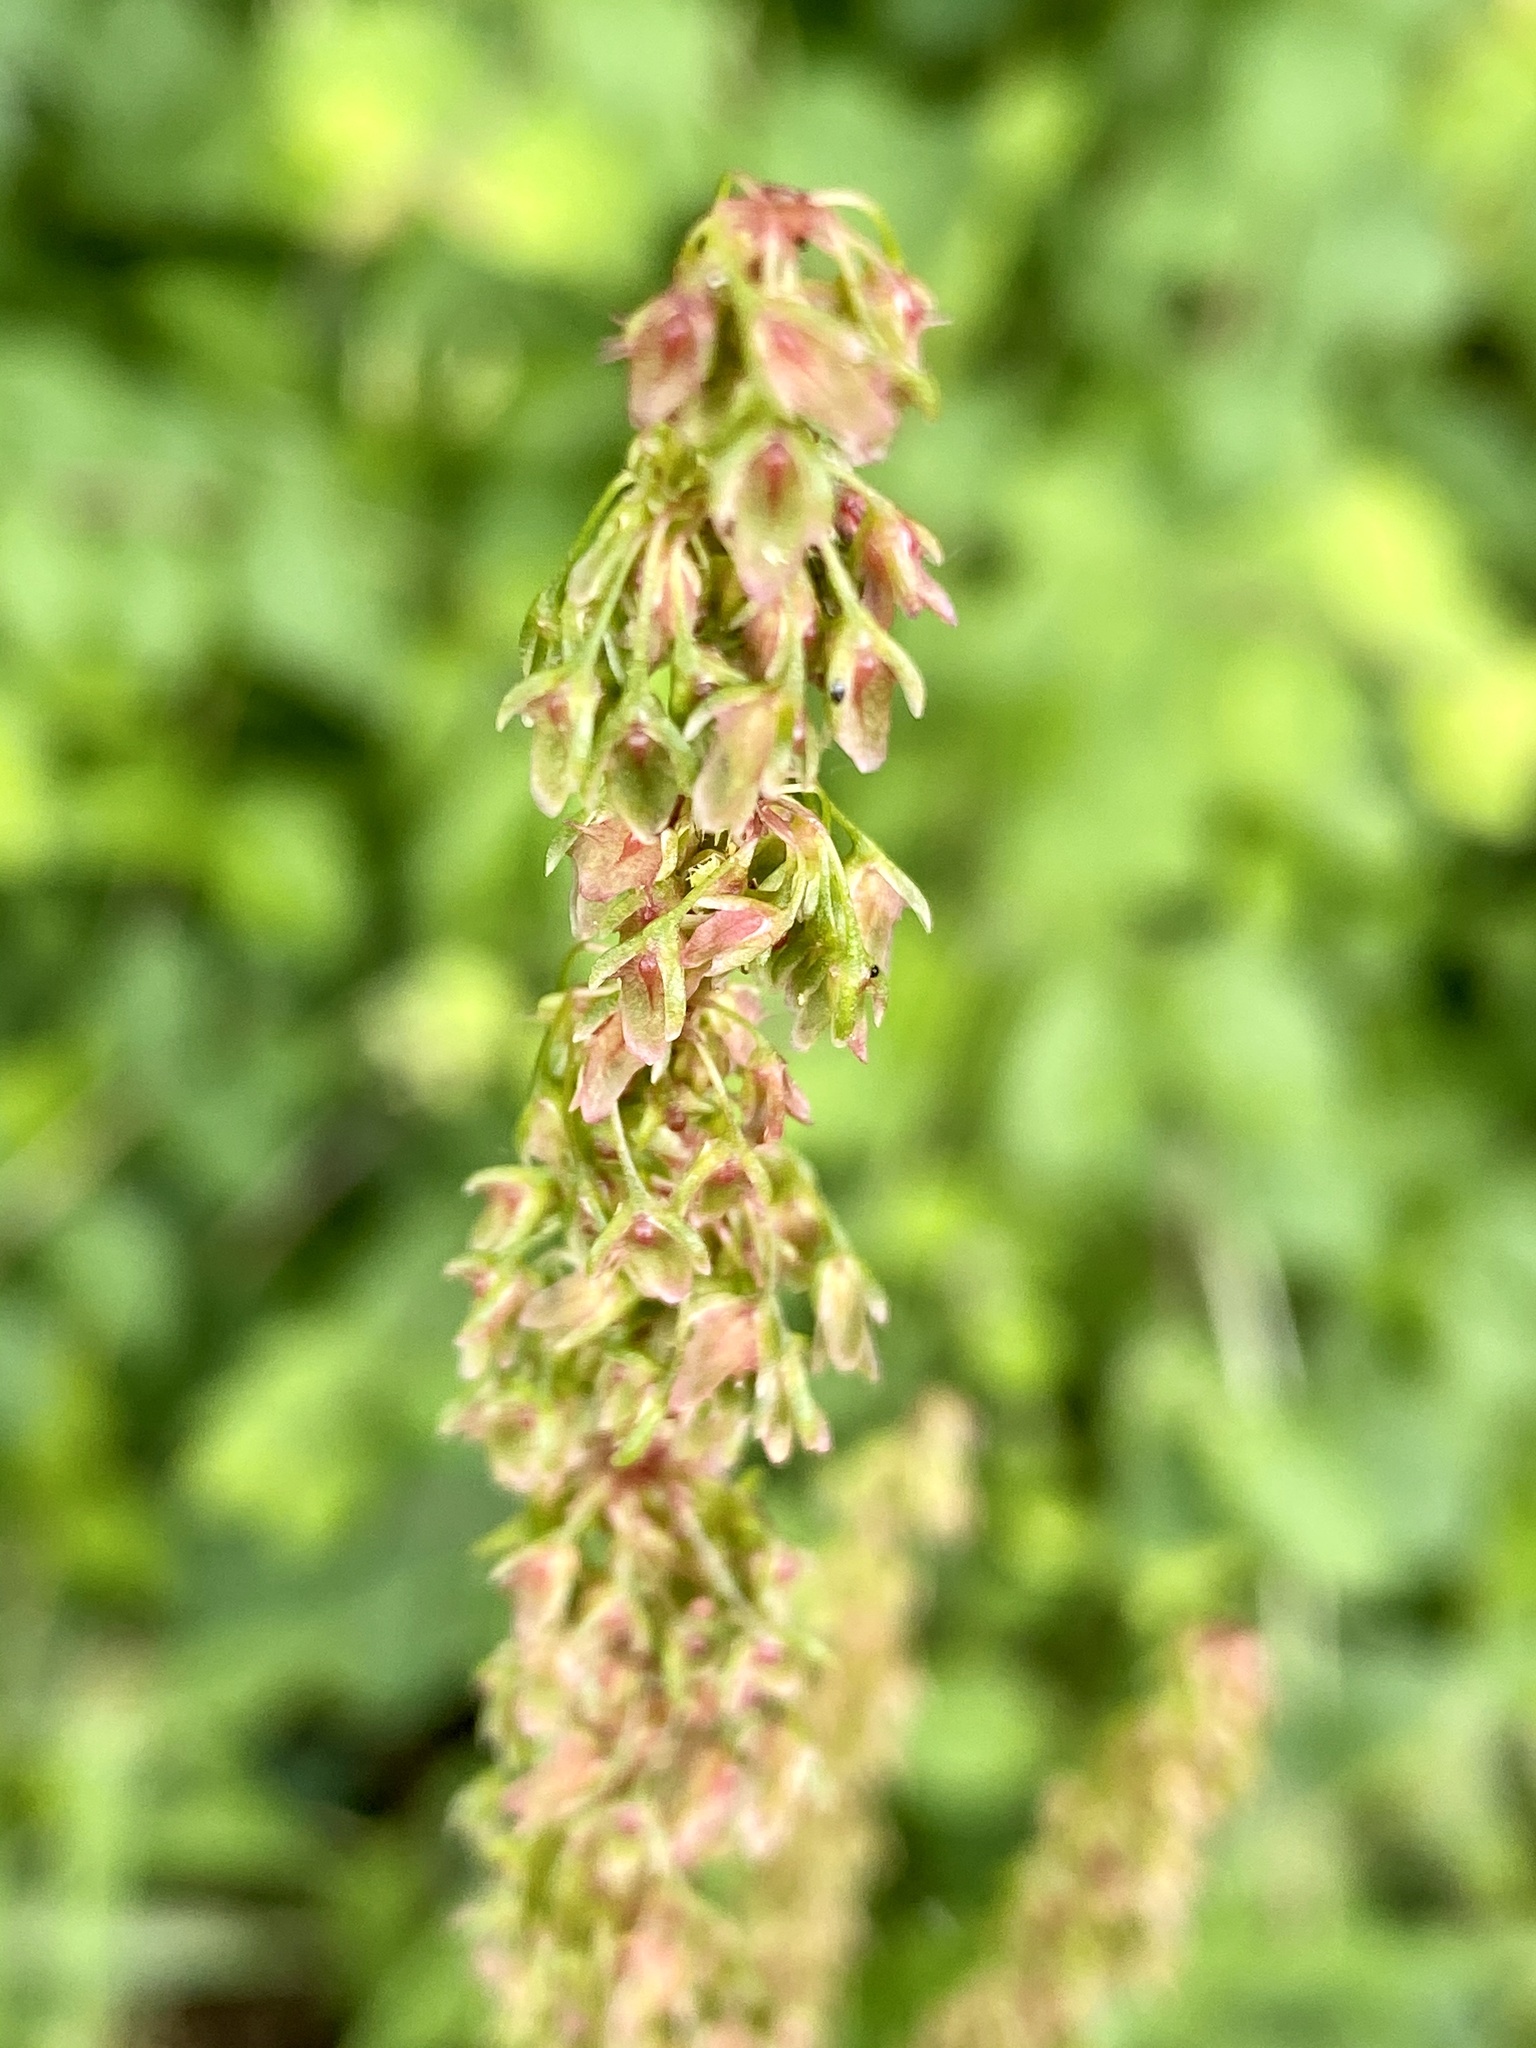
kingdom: Plantae
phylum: Tracheophyta
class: Magnoliopsida
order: Caryophyllales
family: Polygonaceae
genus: Rumex
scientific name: Rumex obtusifolius
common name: Bitter dock
